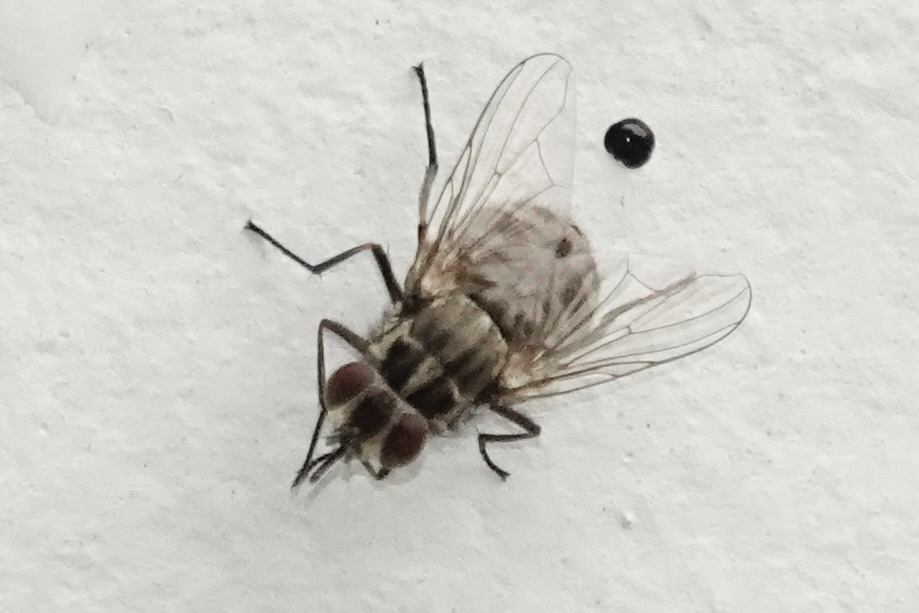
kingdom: Animalia
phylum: Arthropoda
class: Insecta
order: Diptera
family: Muscidae
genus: Stomoxys
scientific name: Stomoxys calcitrans
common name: Stable fly
